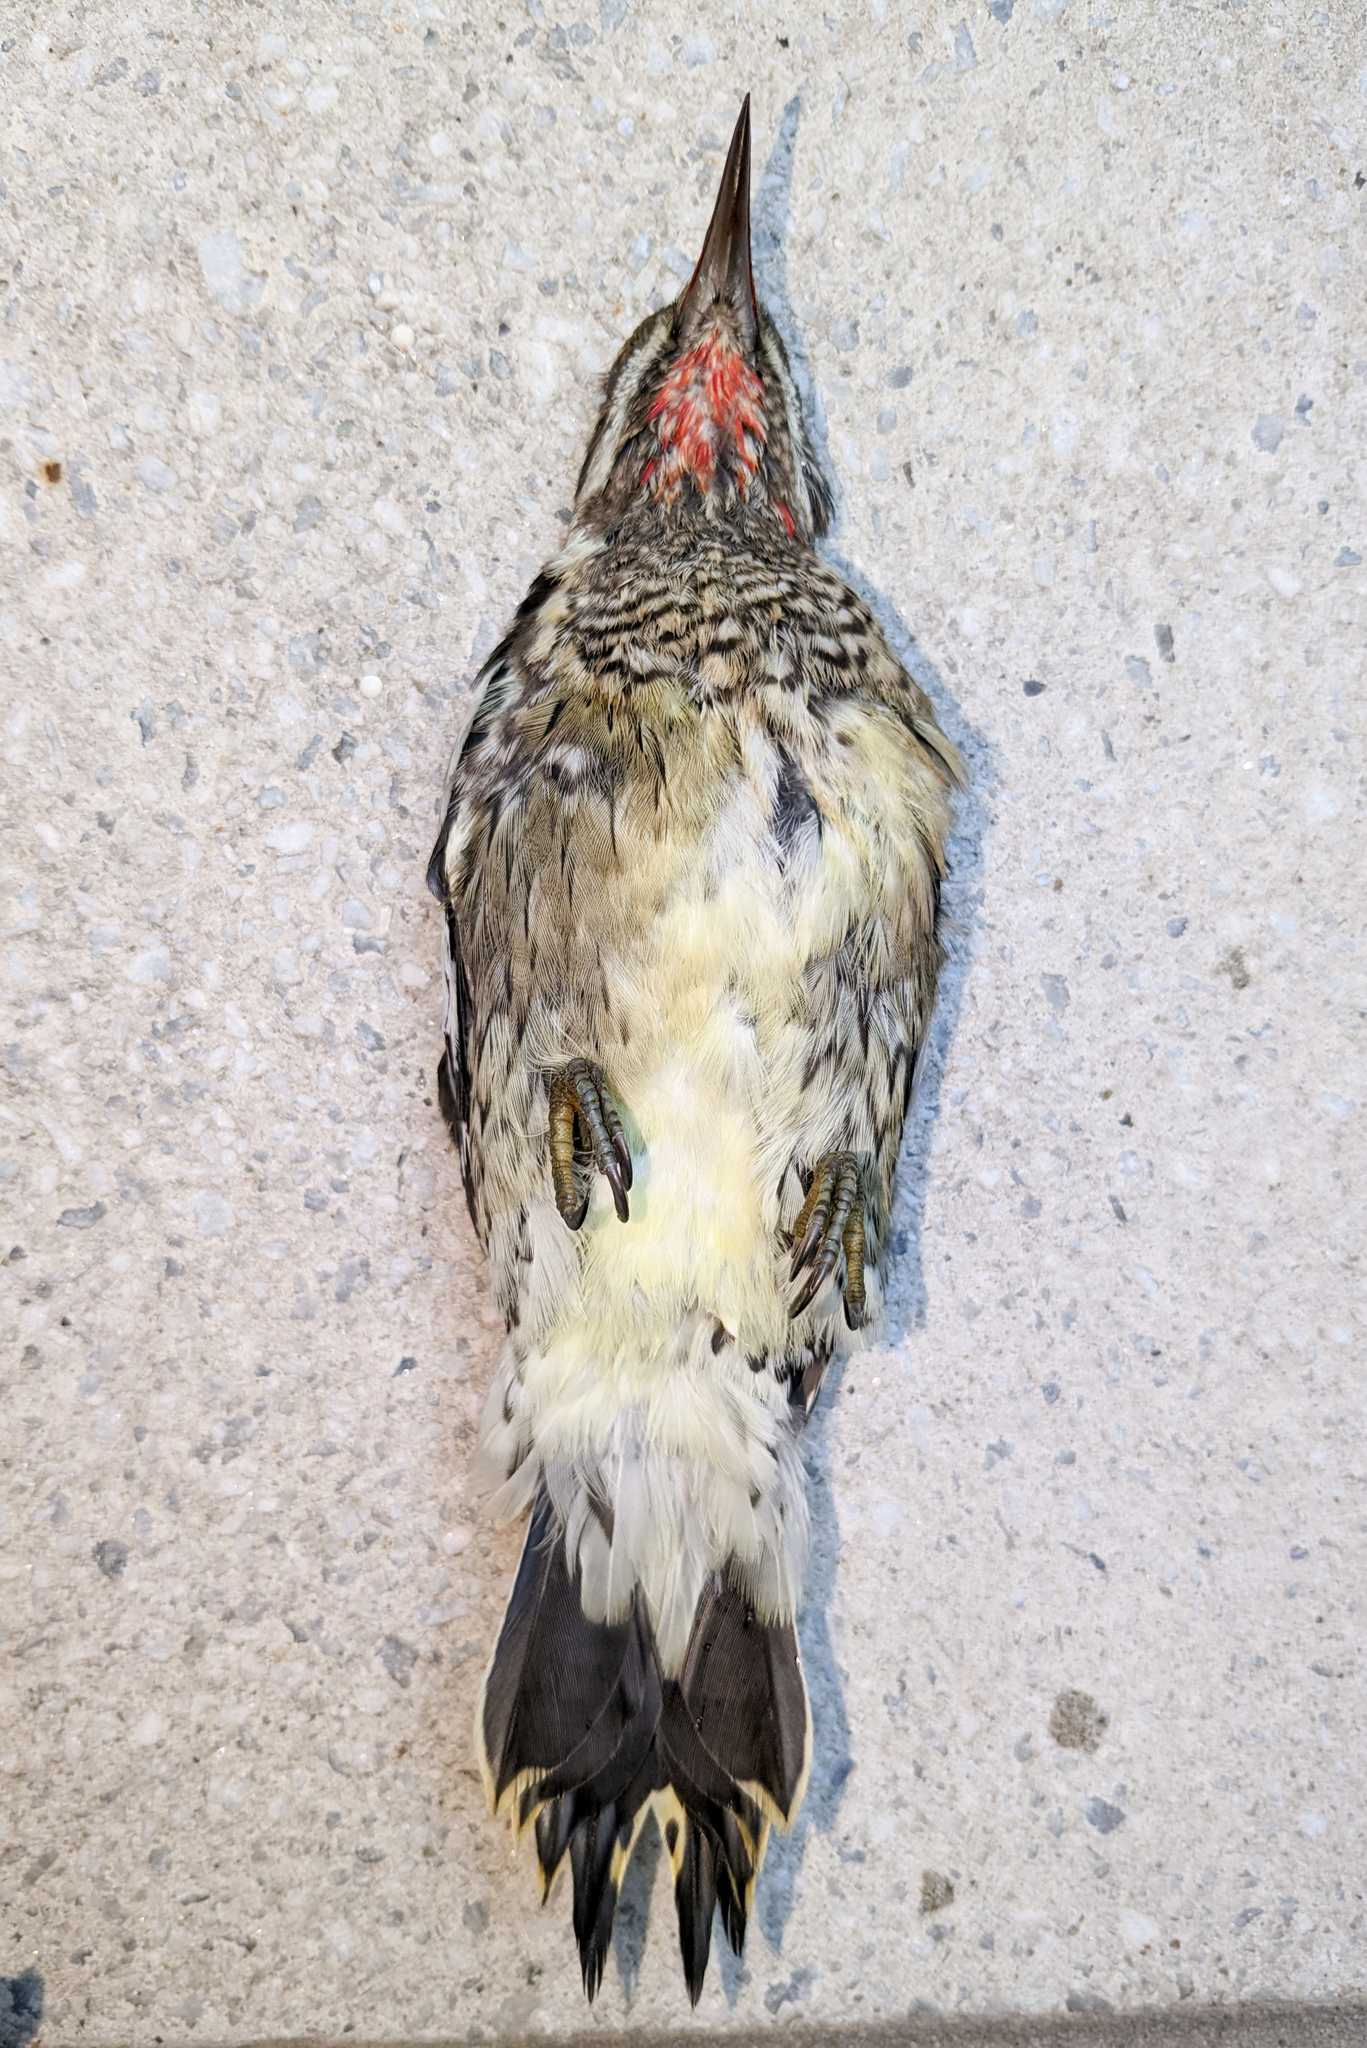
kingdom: Animalia
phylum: Chordata
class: Aves
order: Piciformes
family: Picidae
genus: Sphyrapicus
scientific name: Sphyrapicus varius
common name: Yellow-bellied sapsucker
